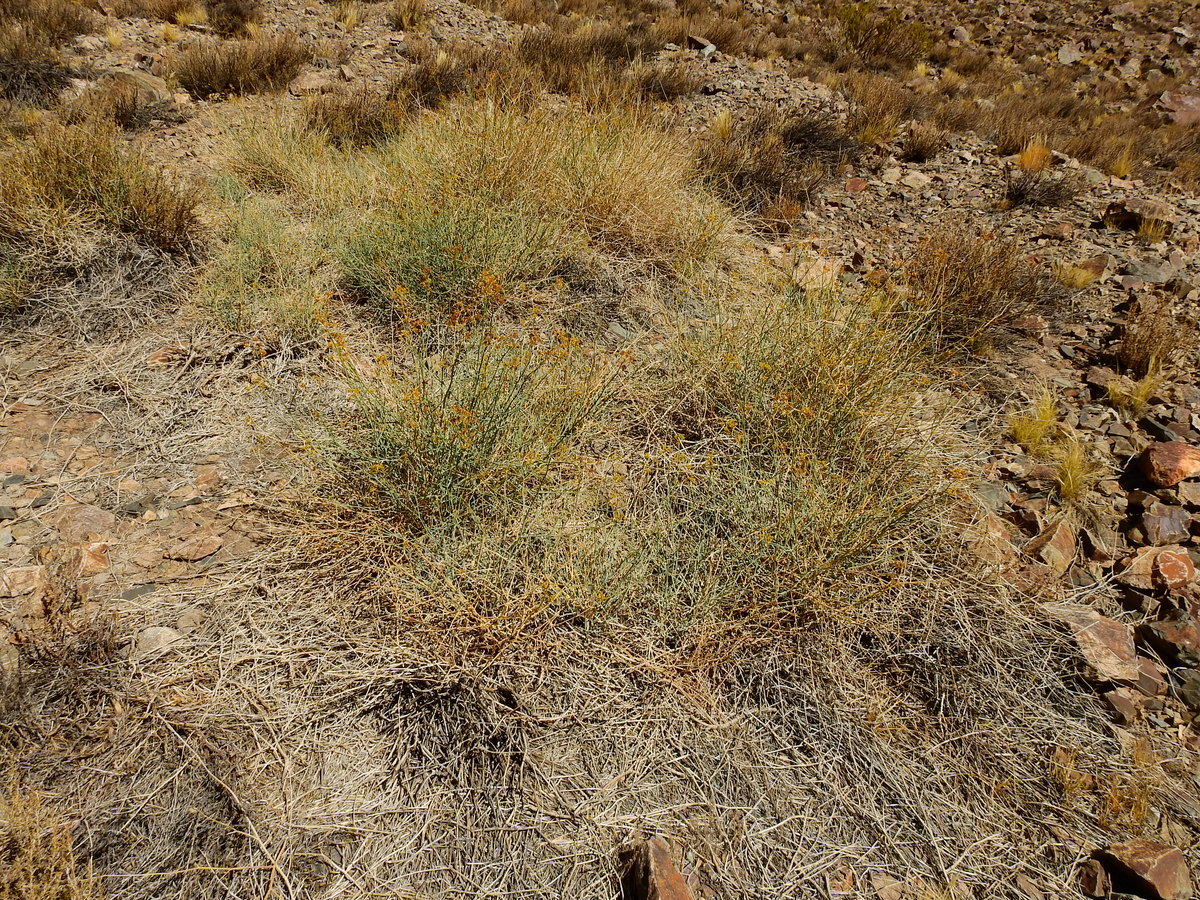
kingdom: Plantae
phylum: Tracheophyta
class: Magnoliopsida
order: Apiales
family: Apiaceae
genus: Gymnophyton
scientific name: Gymnophyton polycephalum
